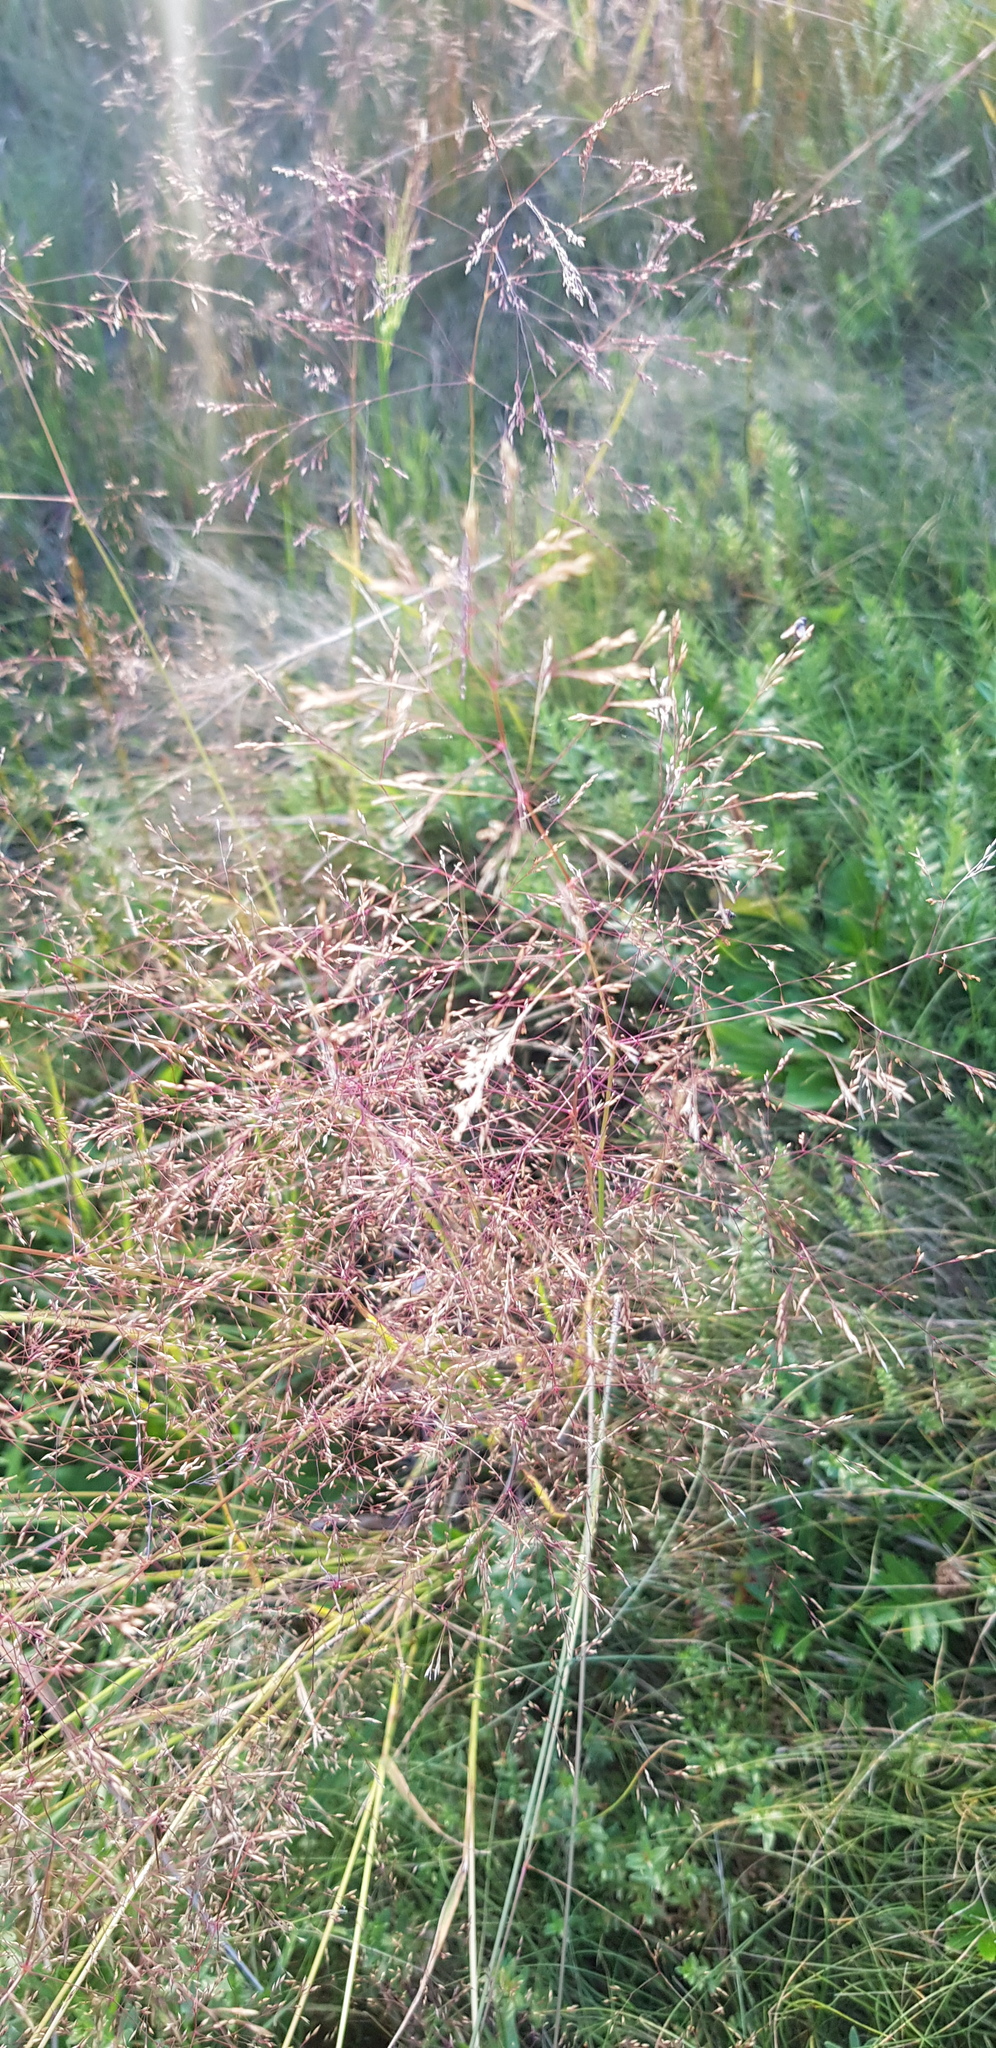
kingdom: Plantae
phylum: Tracheophyta
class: Liliopsida
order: Poales
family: Poaceae
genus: Agrostis
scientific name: Agrostis vinealis
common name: Brown bent
